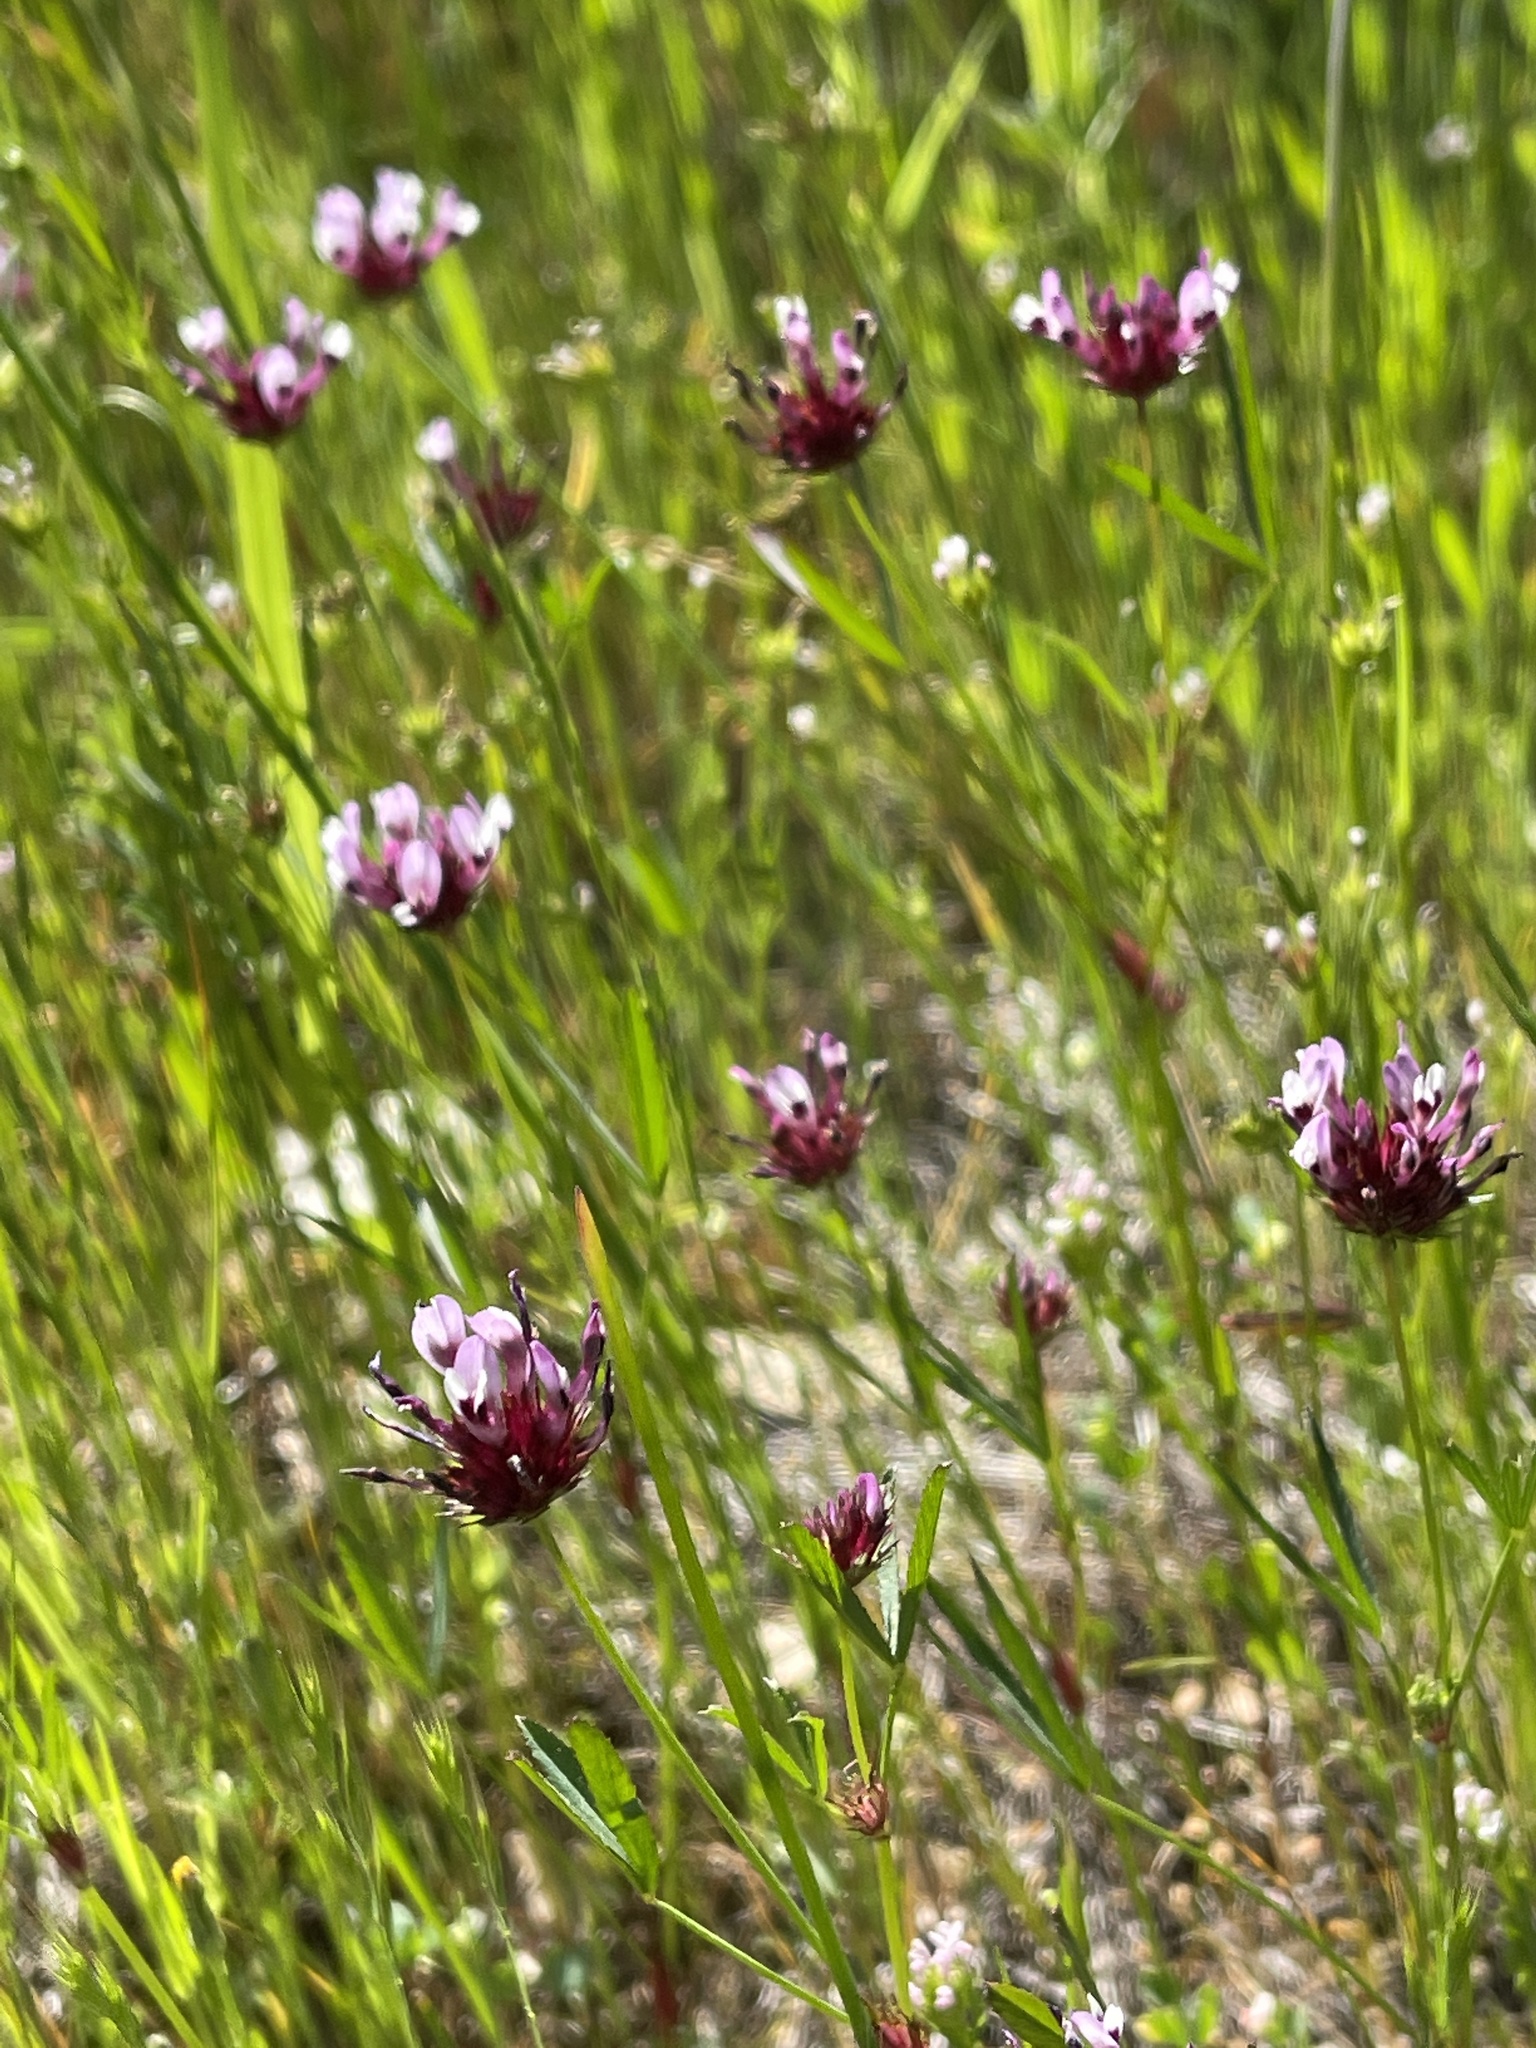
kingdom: Plantae
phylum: Tracheophyta
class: Magnoliopsida
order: Fabales
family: Fabaceae
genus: Trifolium
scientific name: Trifolium willdenovii
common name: Tomcat clover
